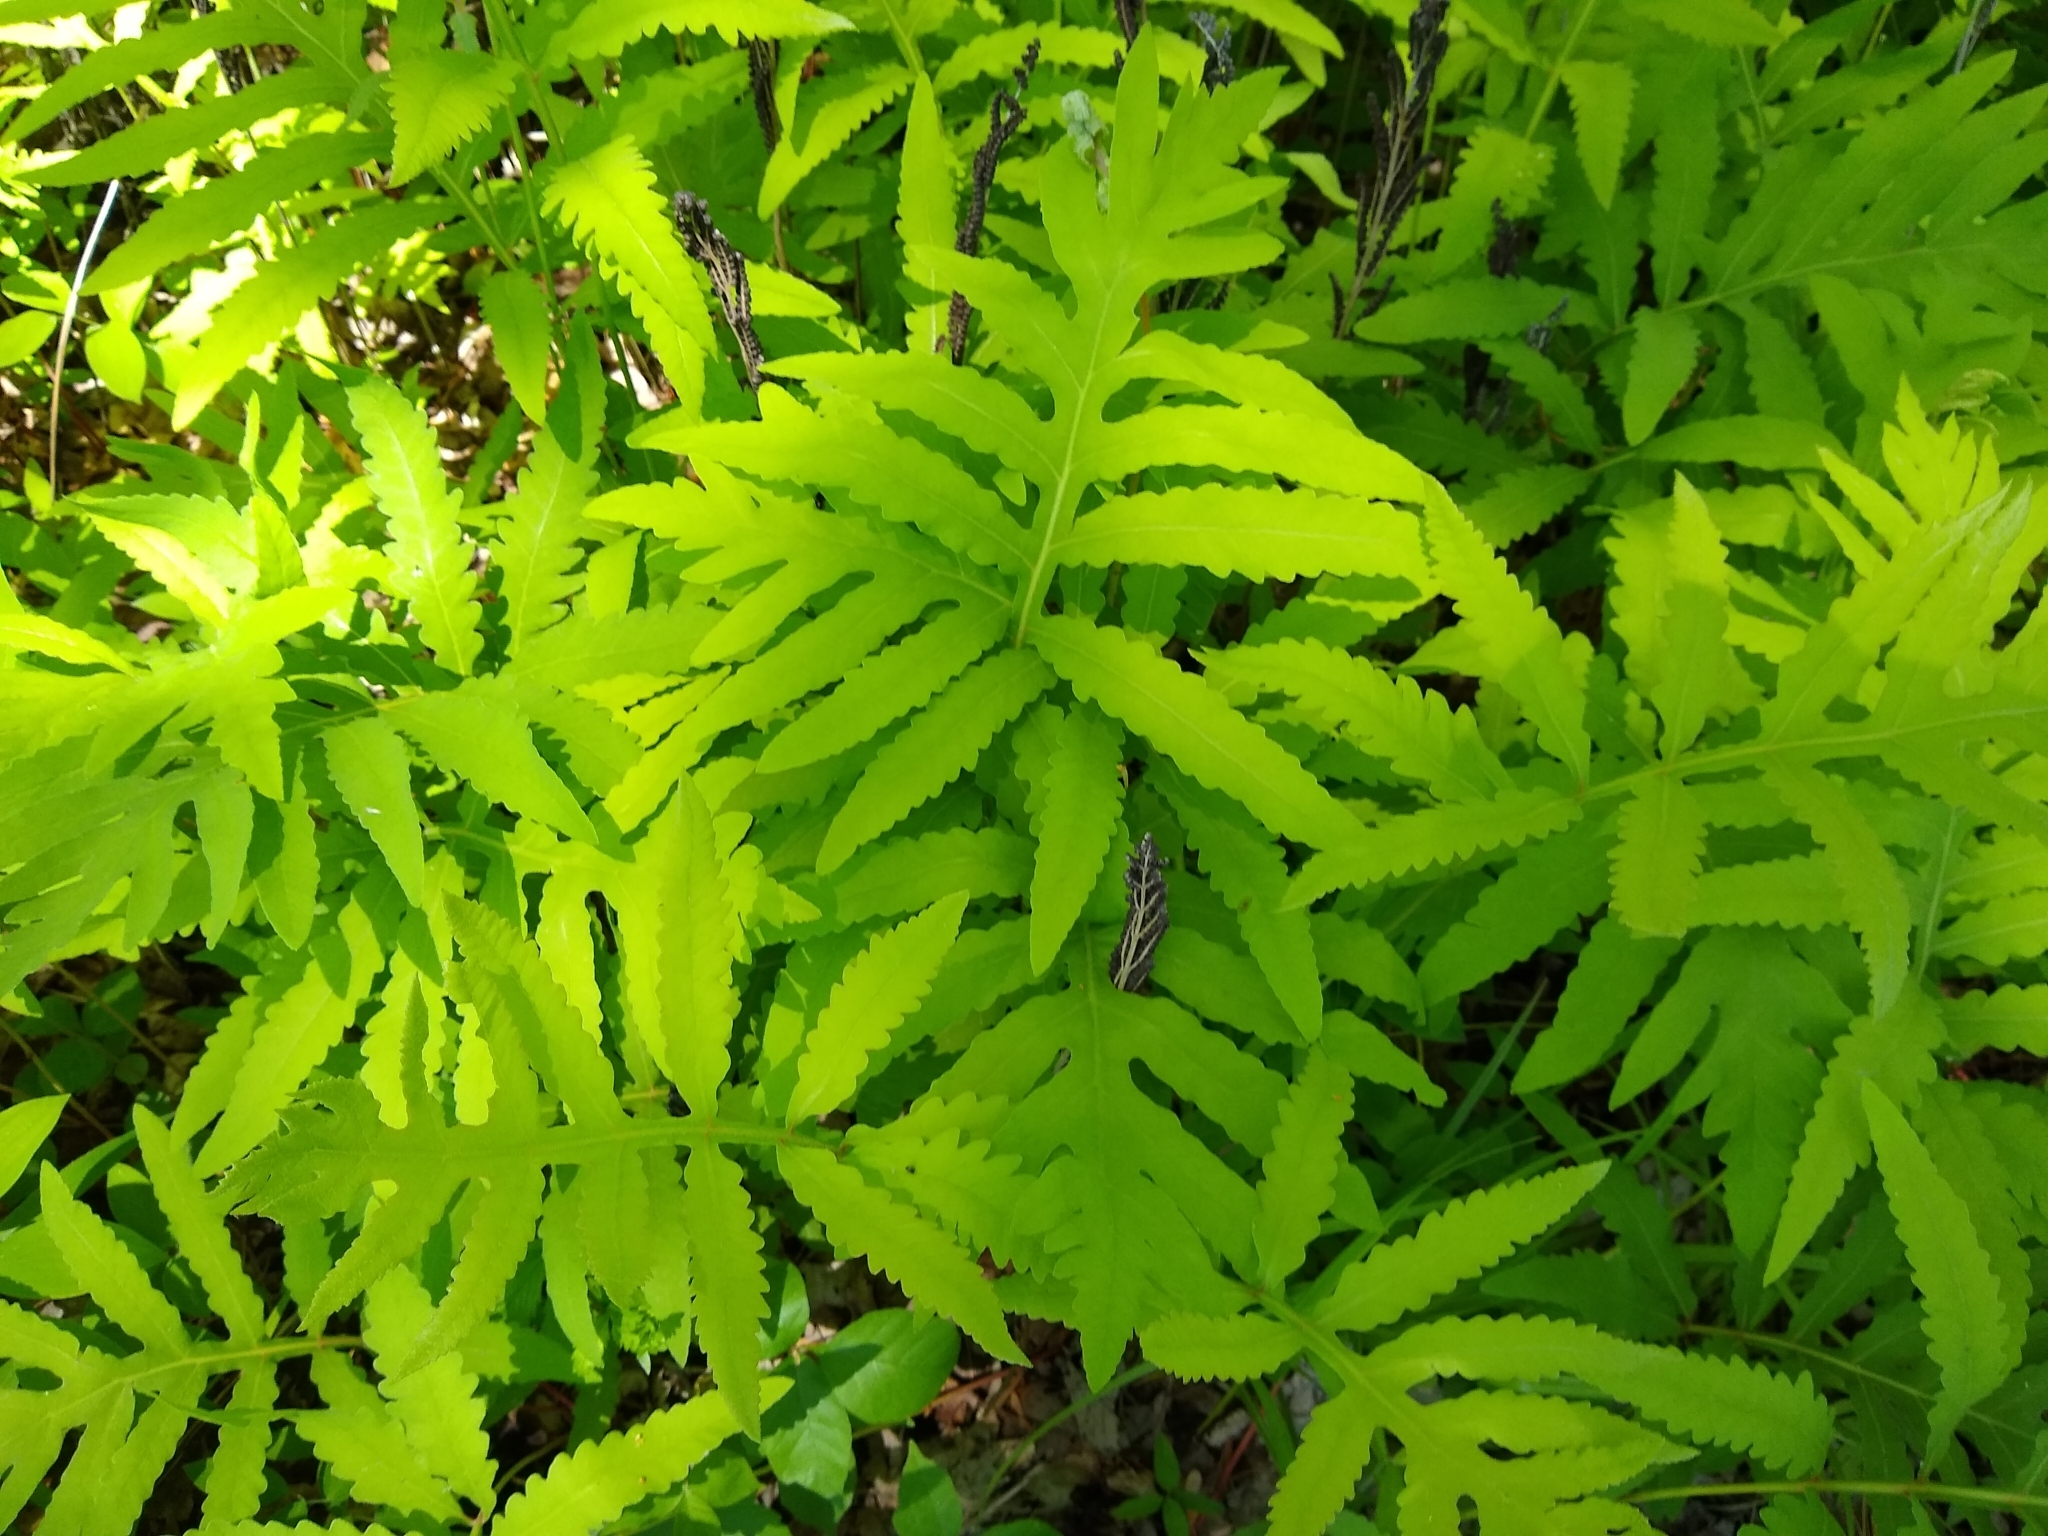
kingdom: Plantae
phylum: Tracheophyta
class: Polypodiopsida
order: Polypodiales
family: Onocleaceae
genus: Onoclea
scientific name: Onoclea sensibilis
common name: Sensitive fern
